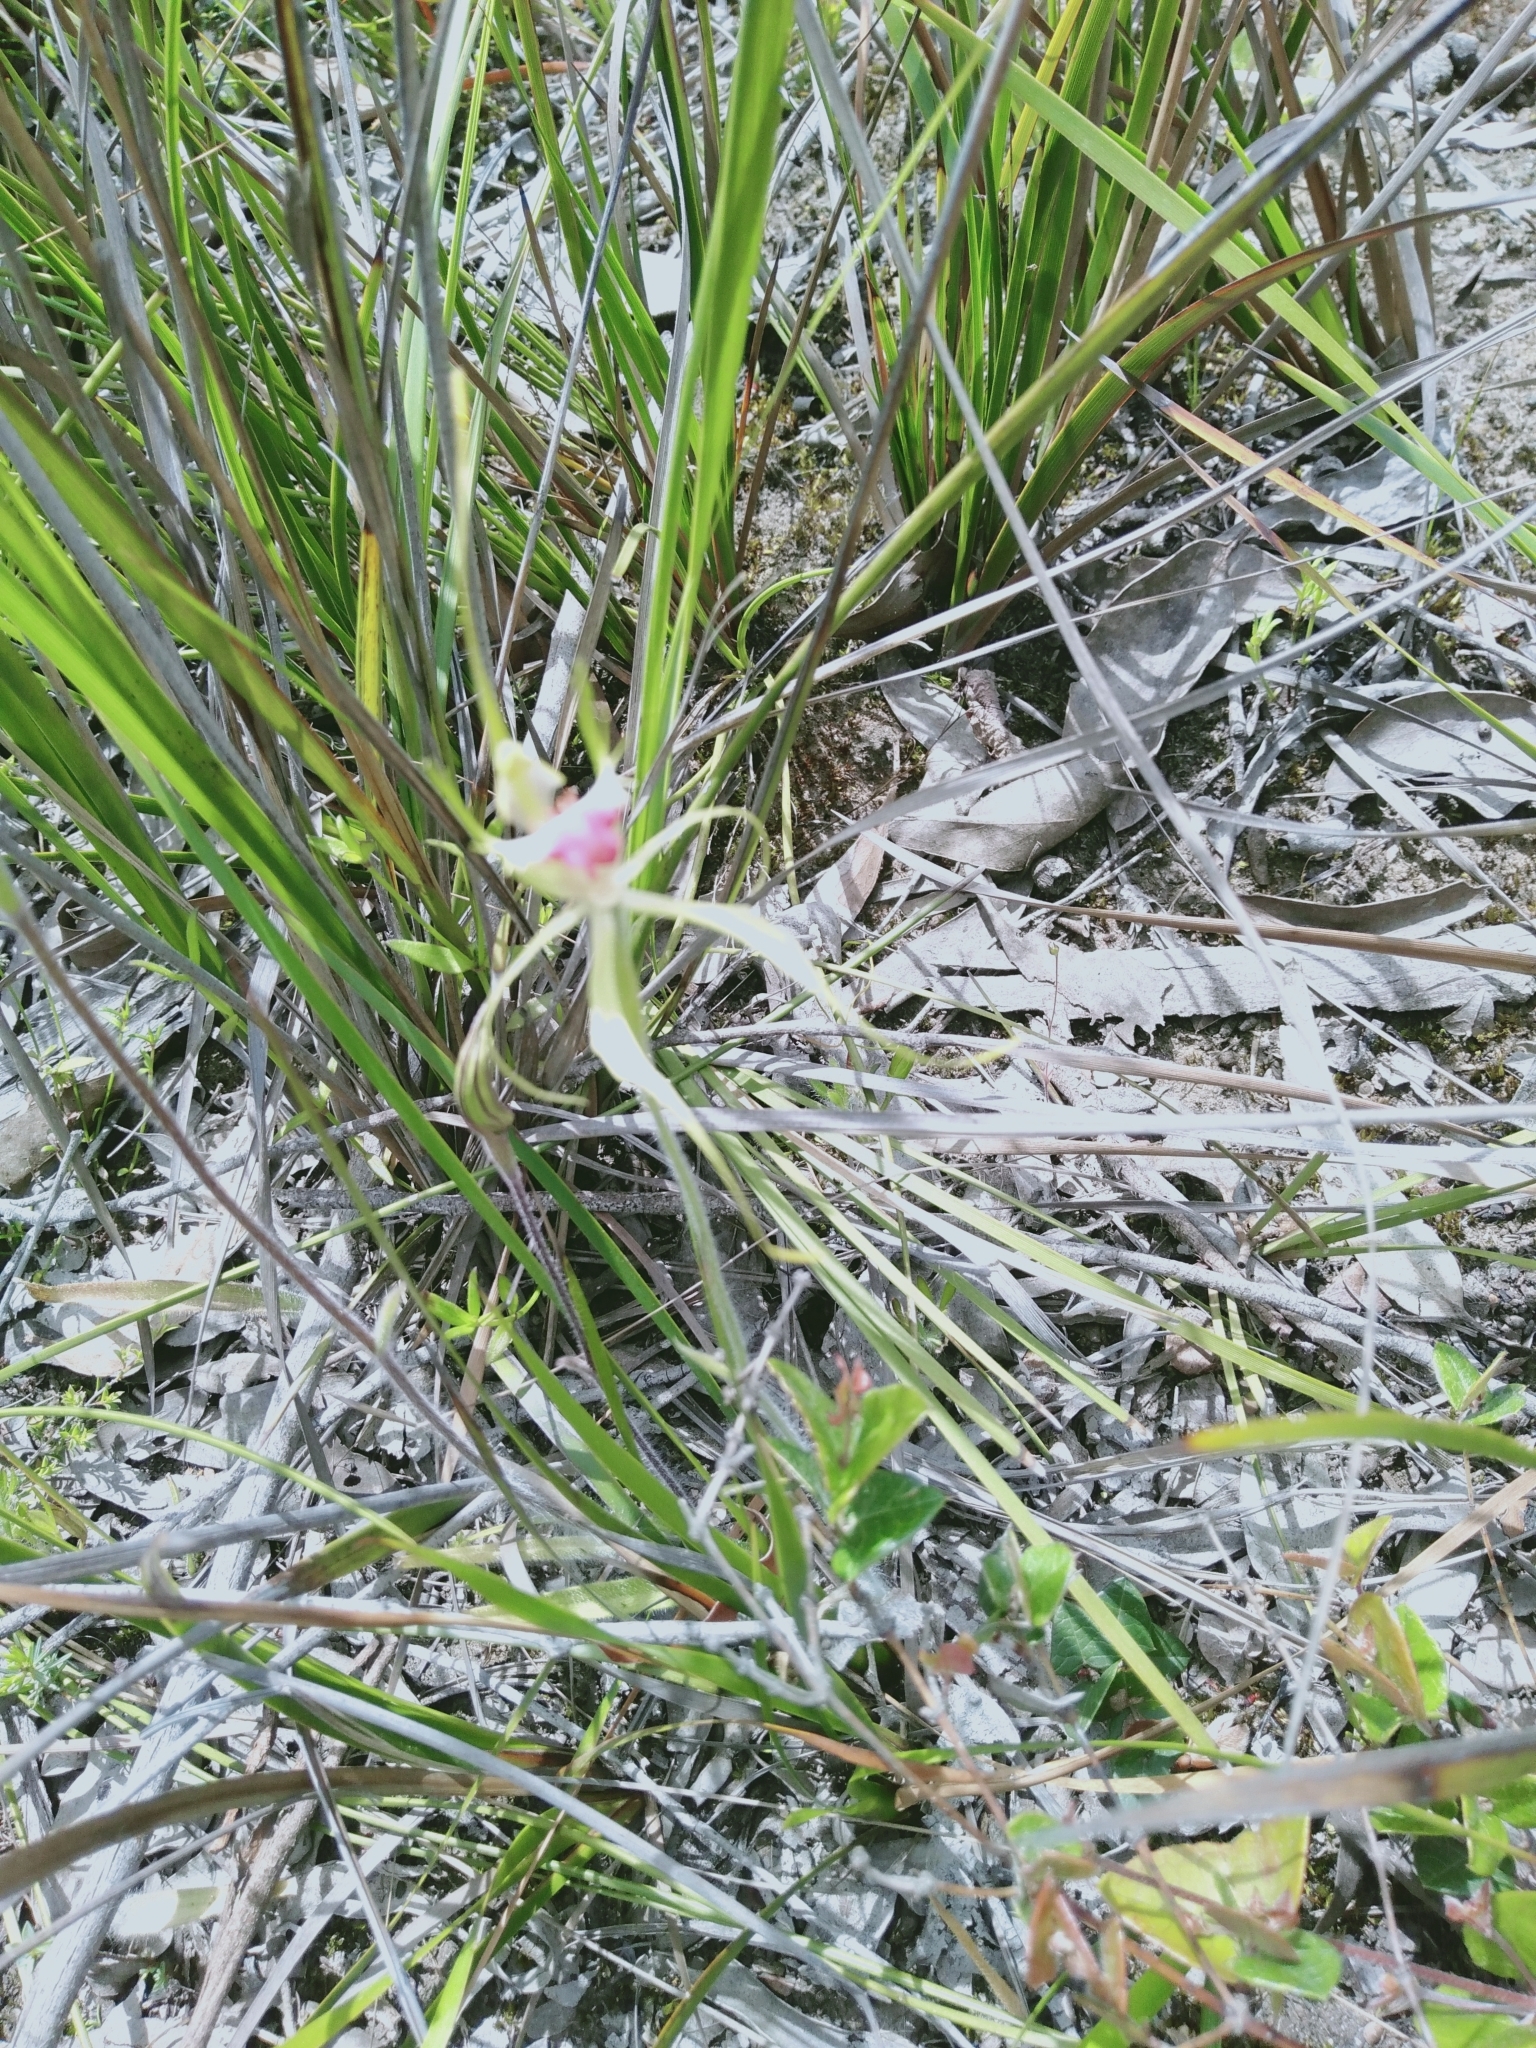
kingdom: Plantae
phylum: Tracheophyta
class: Liliopsida
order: Asparagales
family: Orchidaceae
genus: Caladenia
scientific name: Caladenia tentaculata
